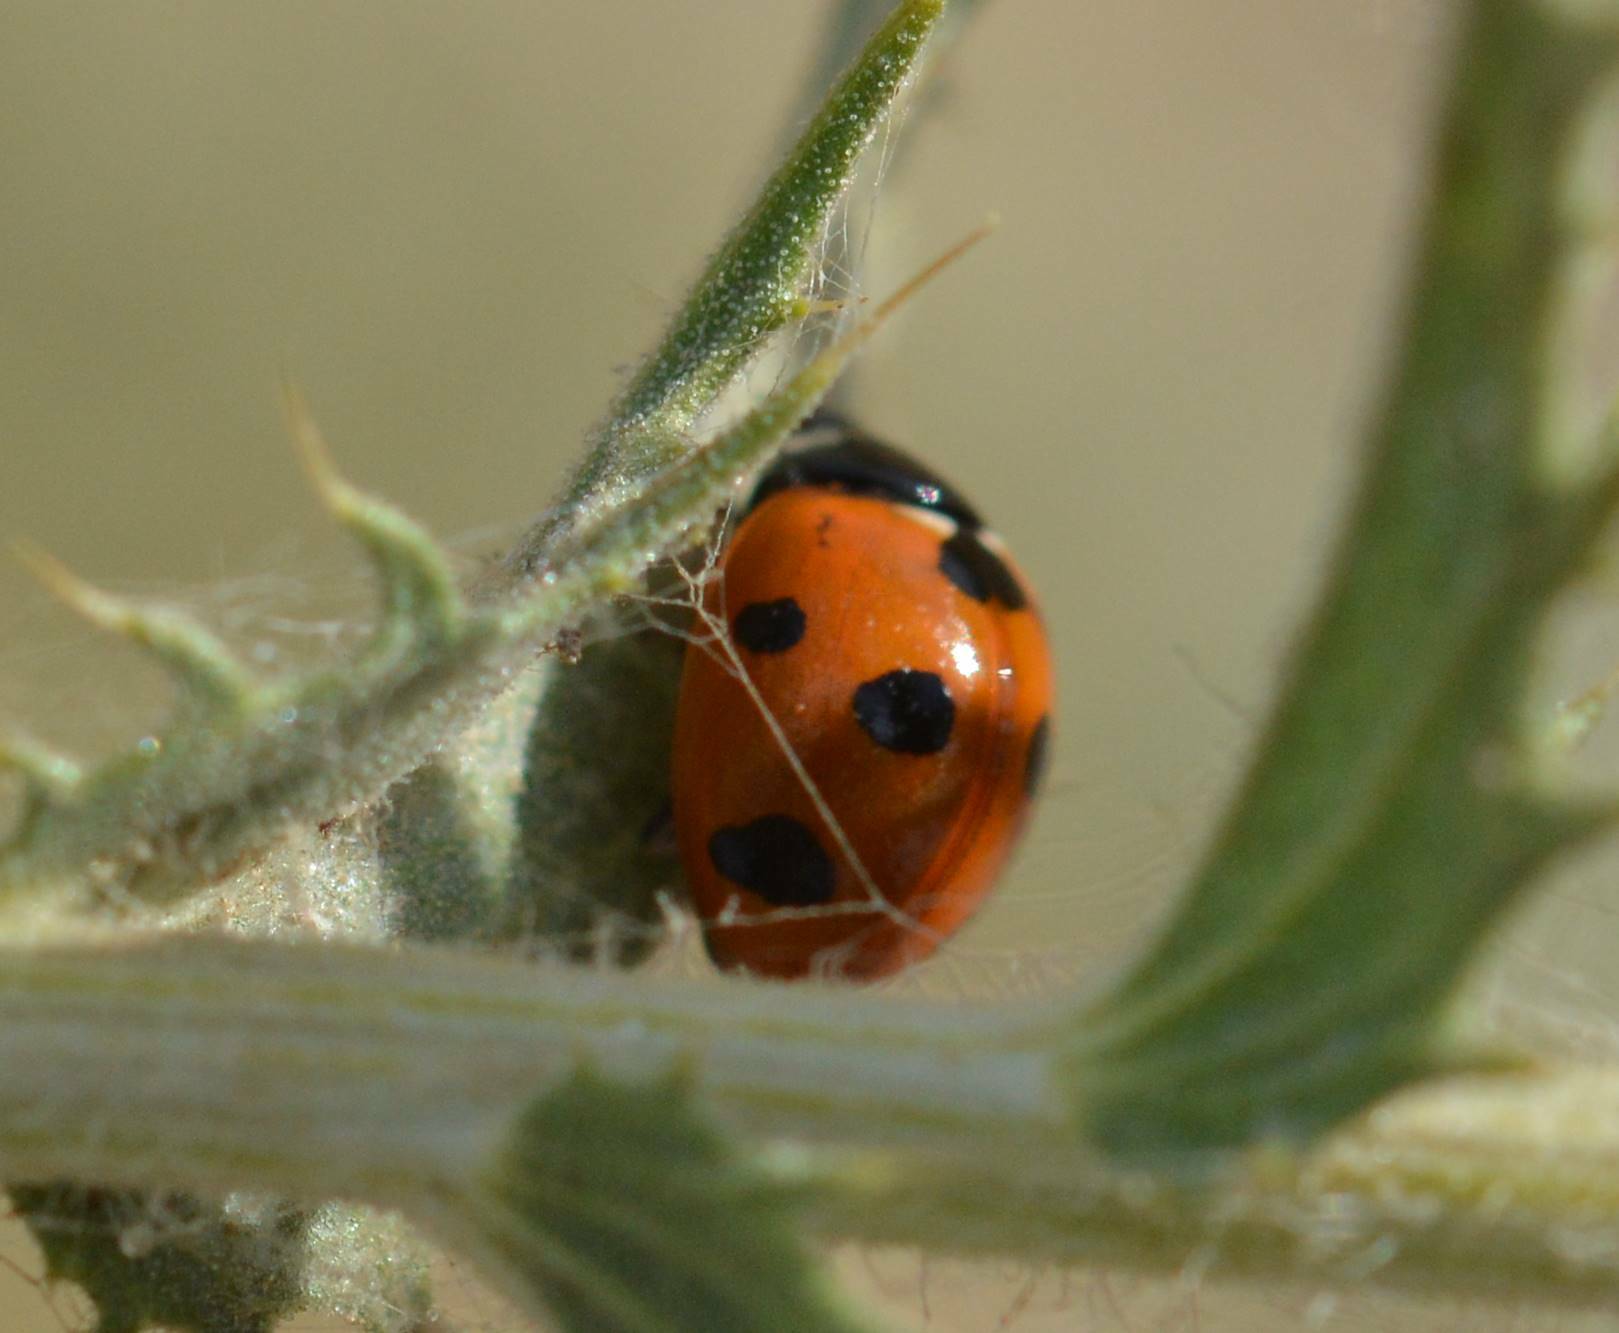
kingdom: Animalia
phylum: Arthropoda
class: Insecta
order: Coleoptera
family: Coccinellidae
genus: Coccinella
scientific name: Coccinella algerica
